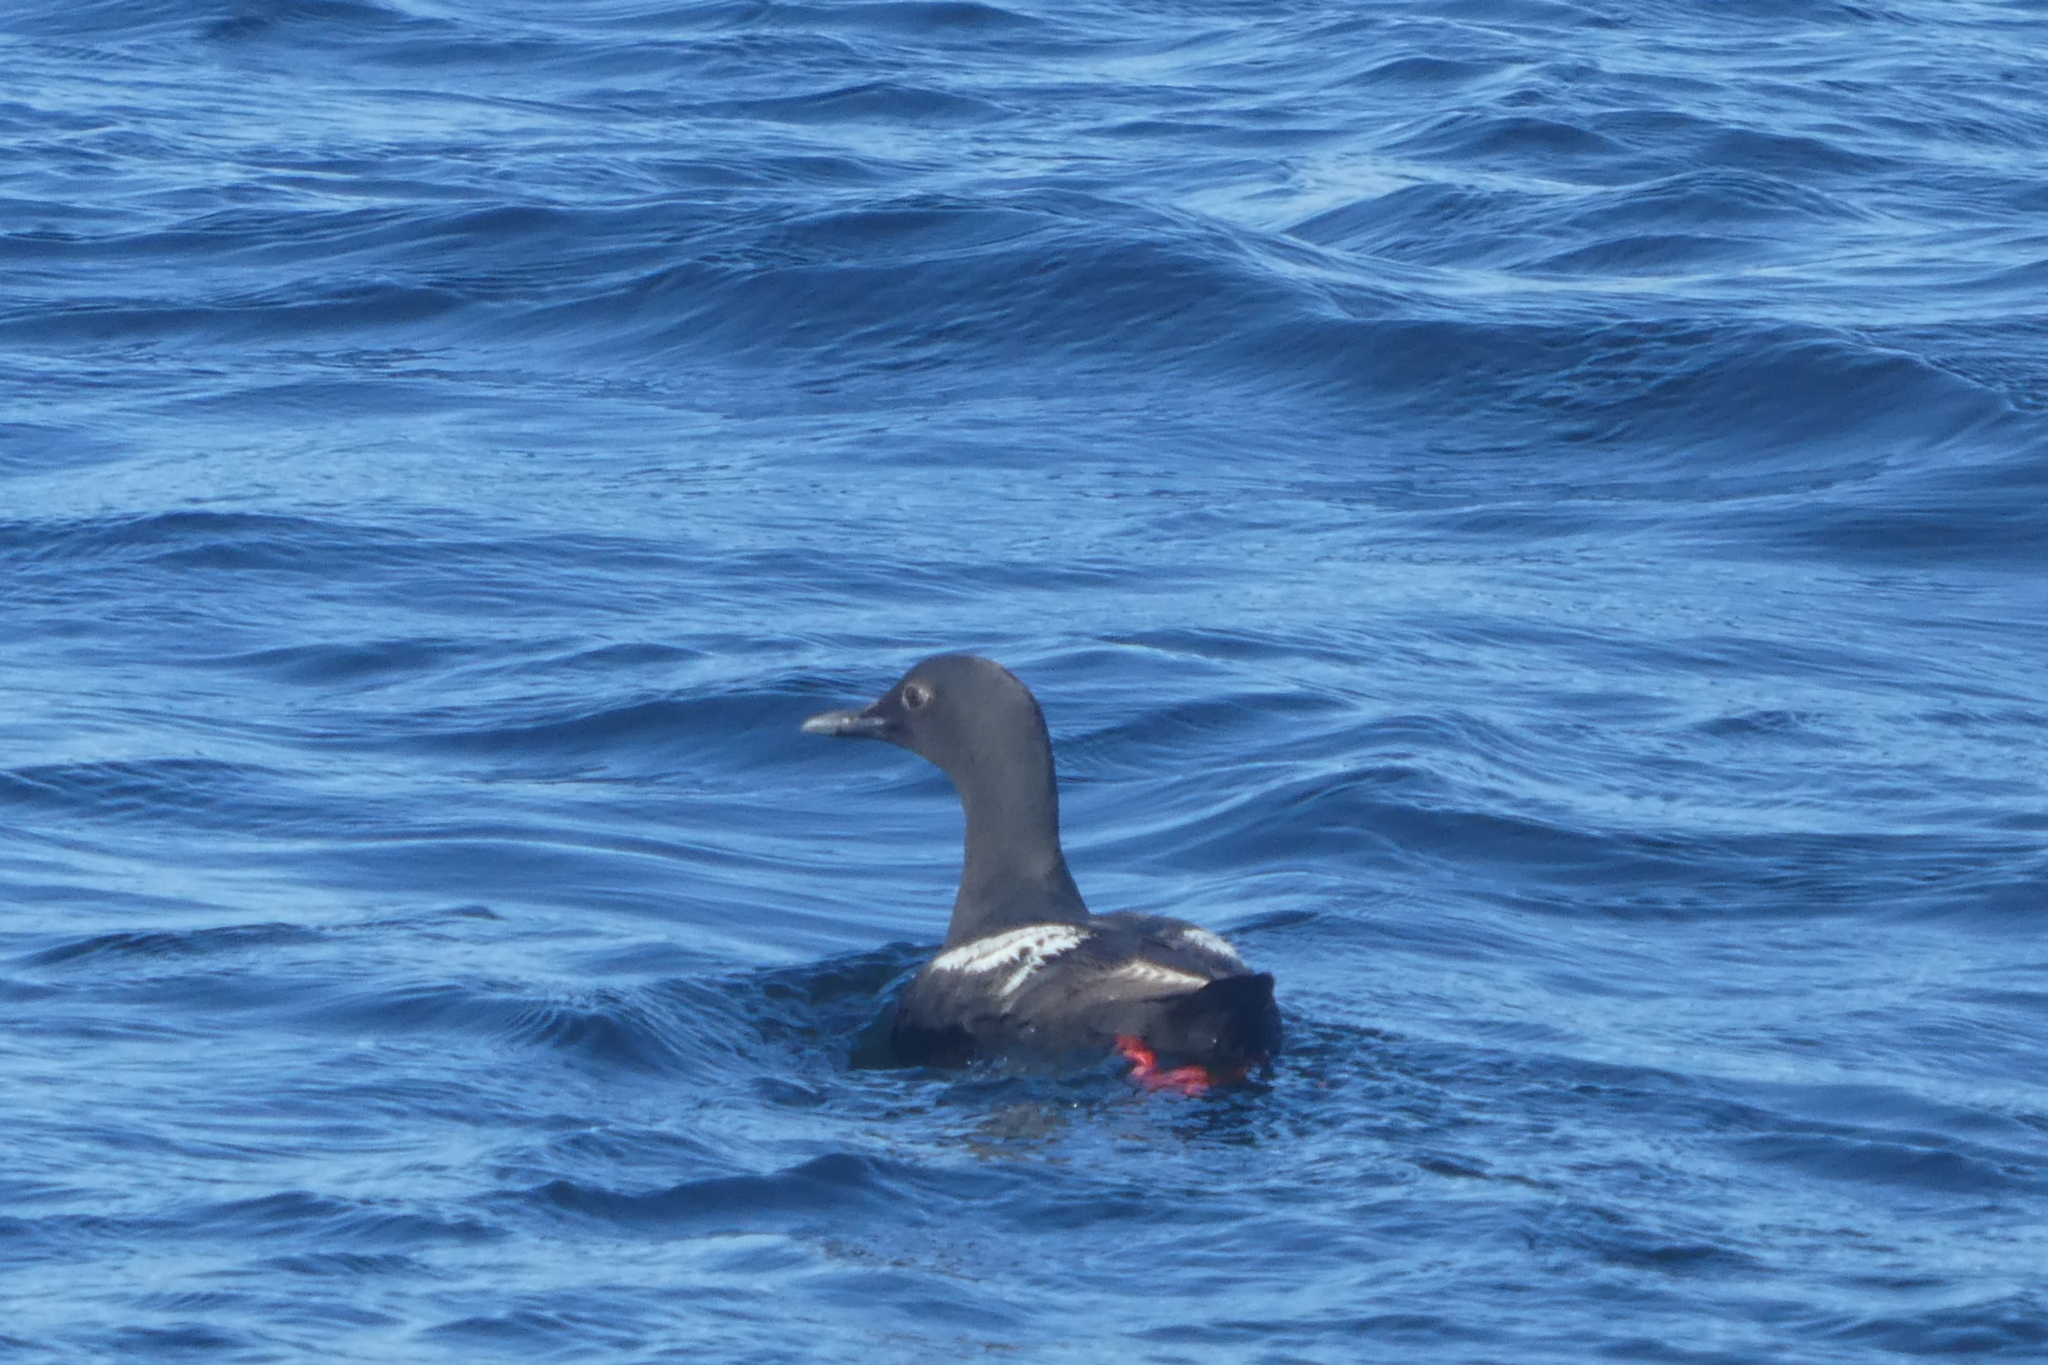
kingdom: Animalia
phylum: Chordata
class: Aves
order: Charadriiformes
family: Alcidae
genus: Cepphus
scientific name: Cepphus columba
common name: Pigeon guillemot
